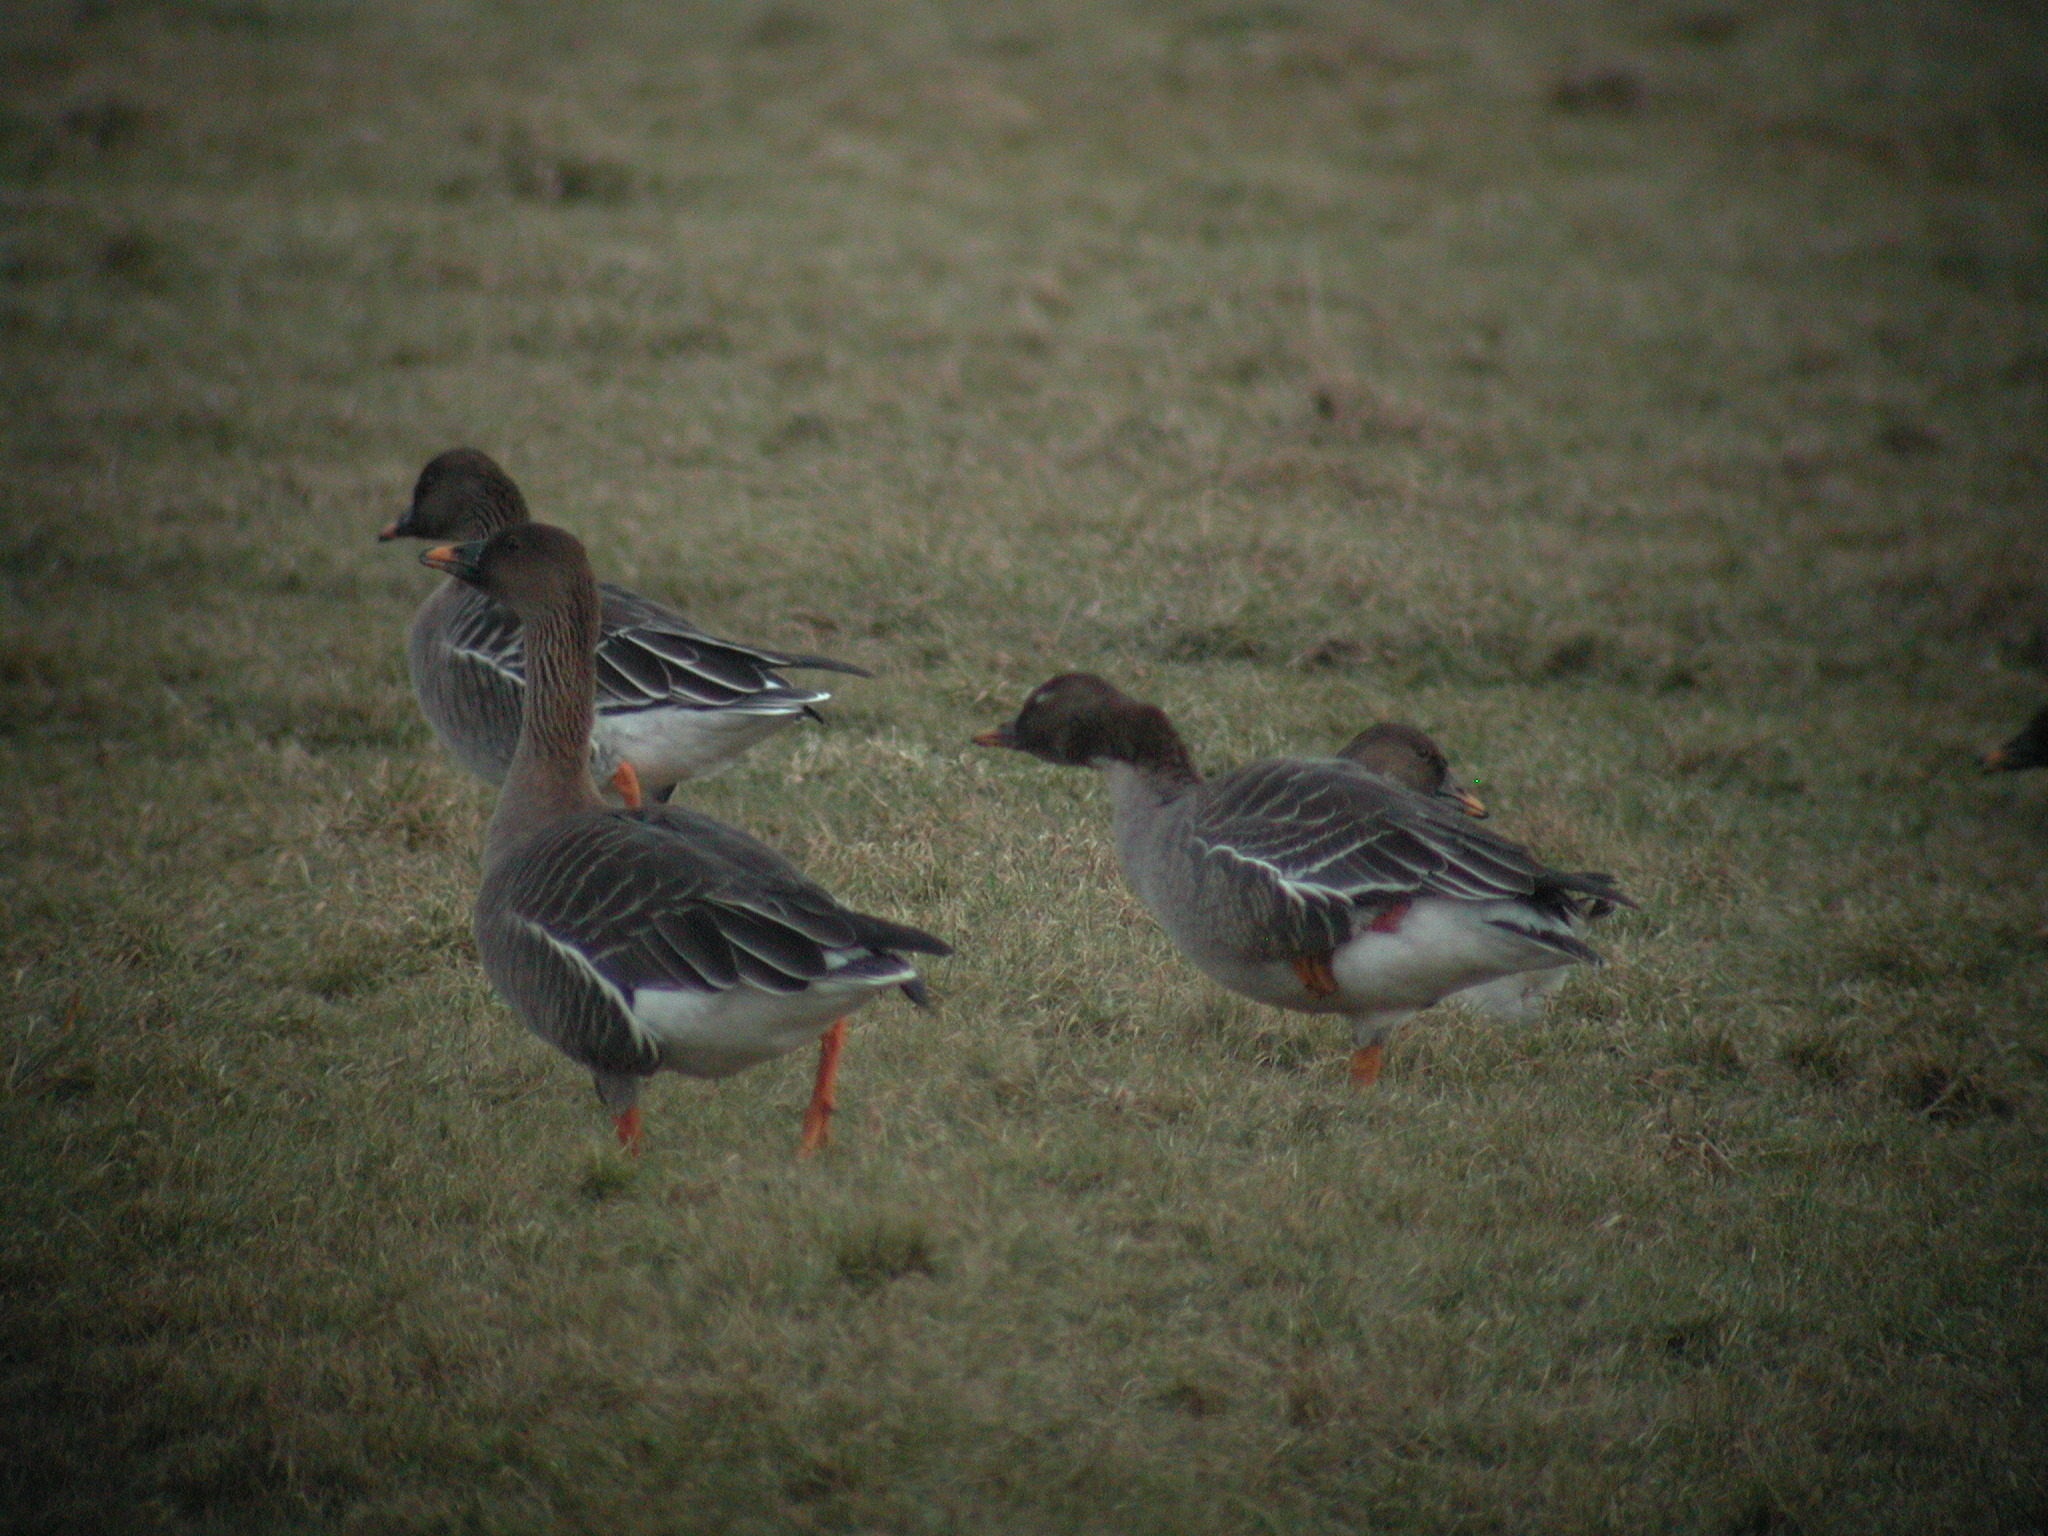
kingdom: Animalia
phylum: Chordata
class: Aves
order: Anseriformes
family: Anatidae
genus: Anser
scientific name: Anser serrirostris
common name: Tundra bean goose
